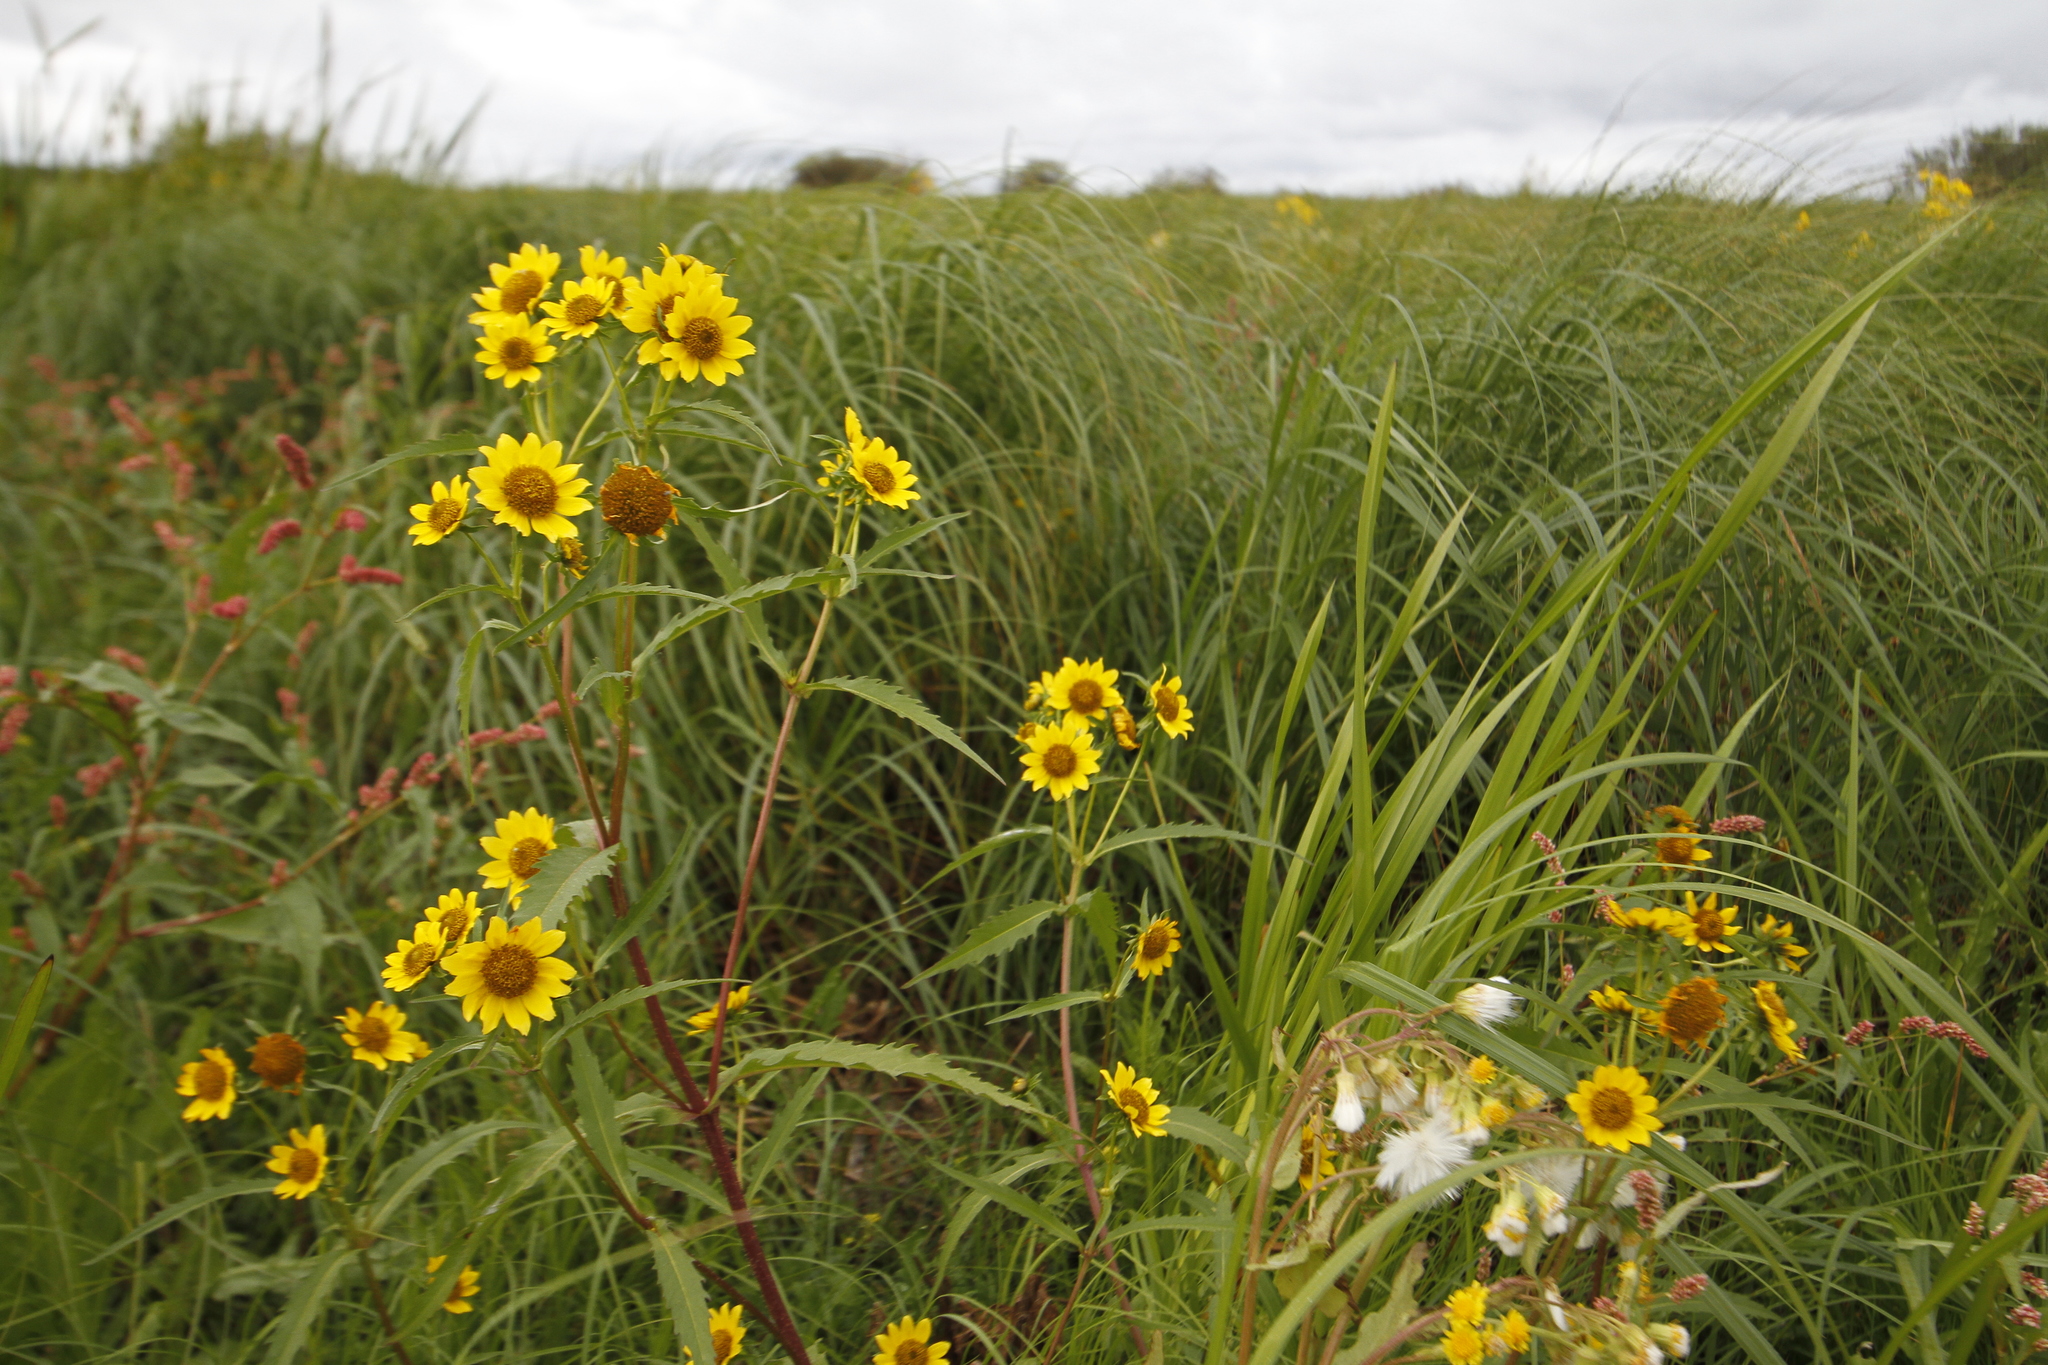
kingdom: Plantae
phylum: Tracheophyta
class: Magnoliopsida
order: Asterales
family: Asteraceae
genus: Bidens
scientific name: Bidens cernua
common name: Nodding bur-marigold
